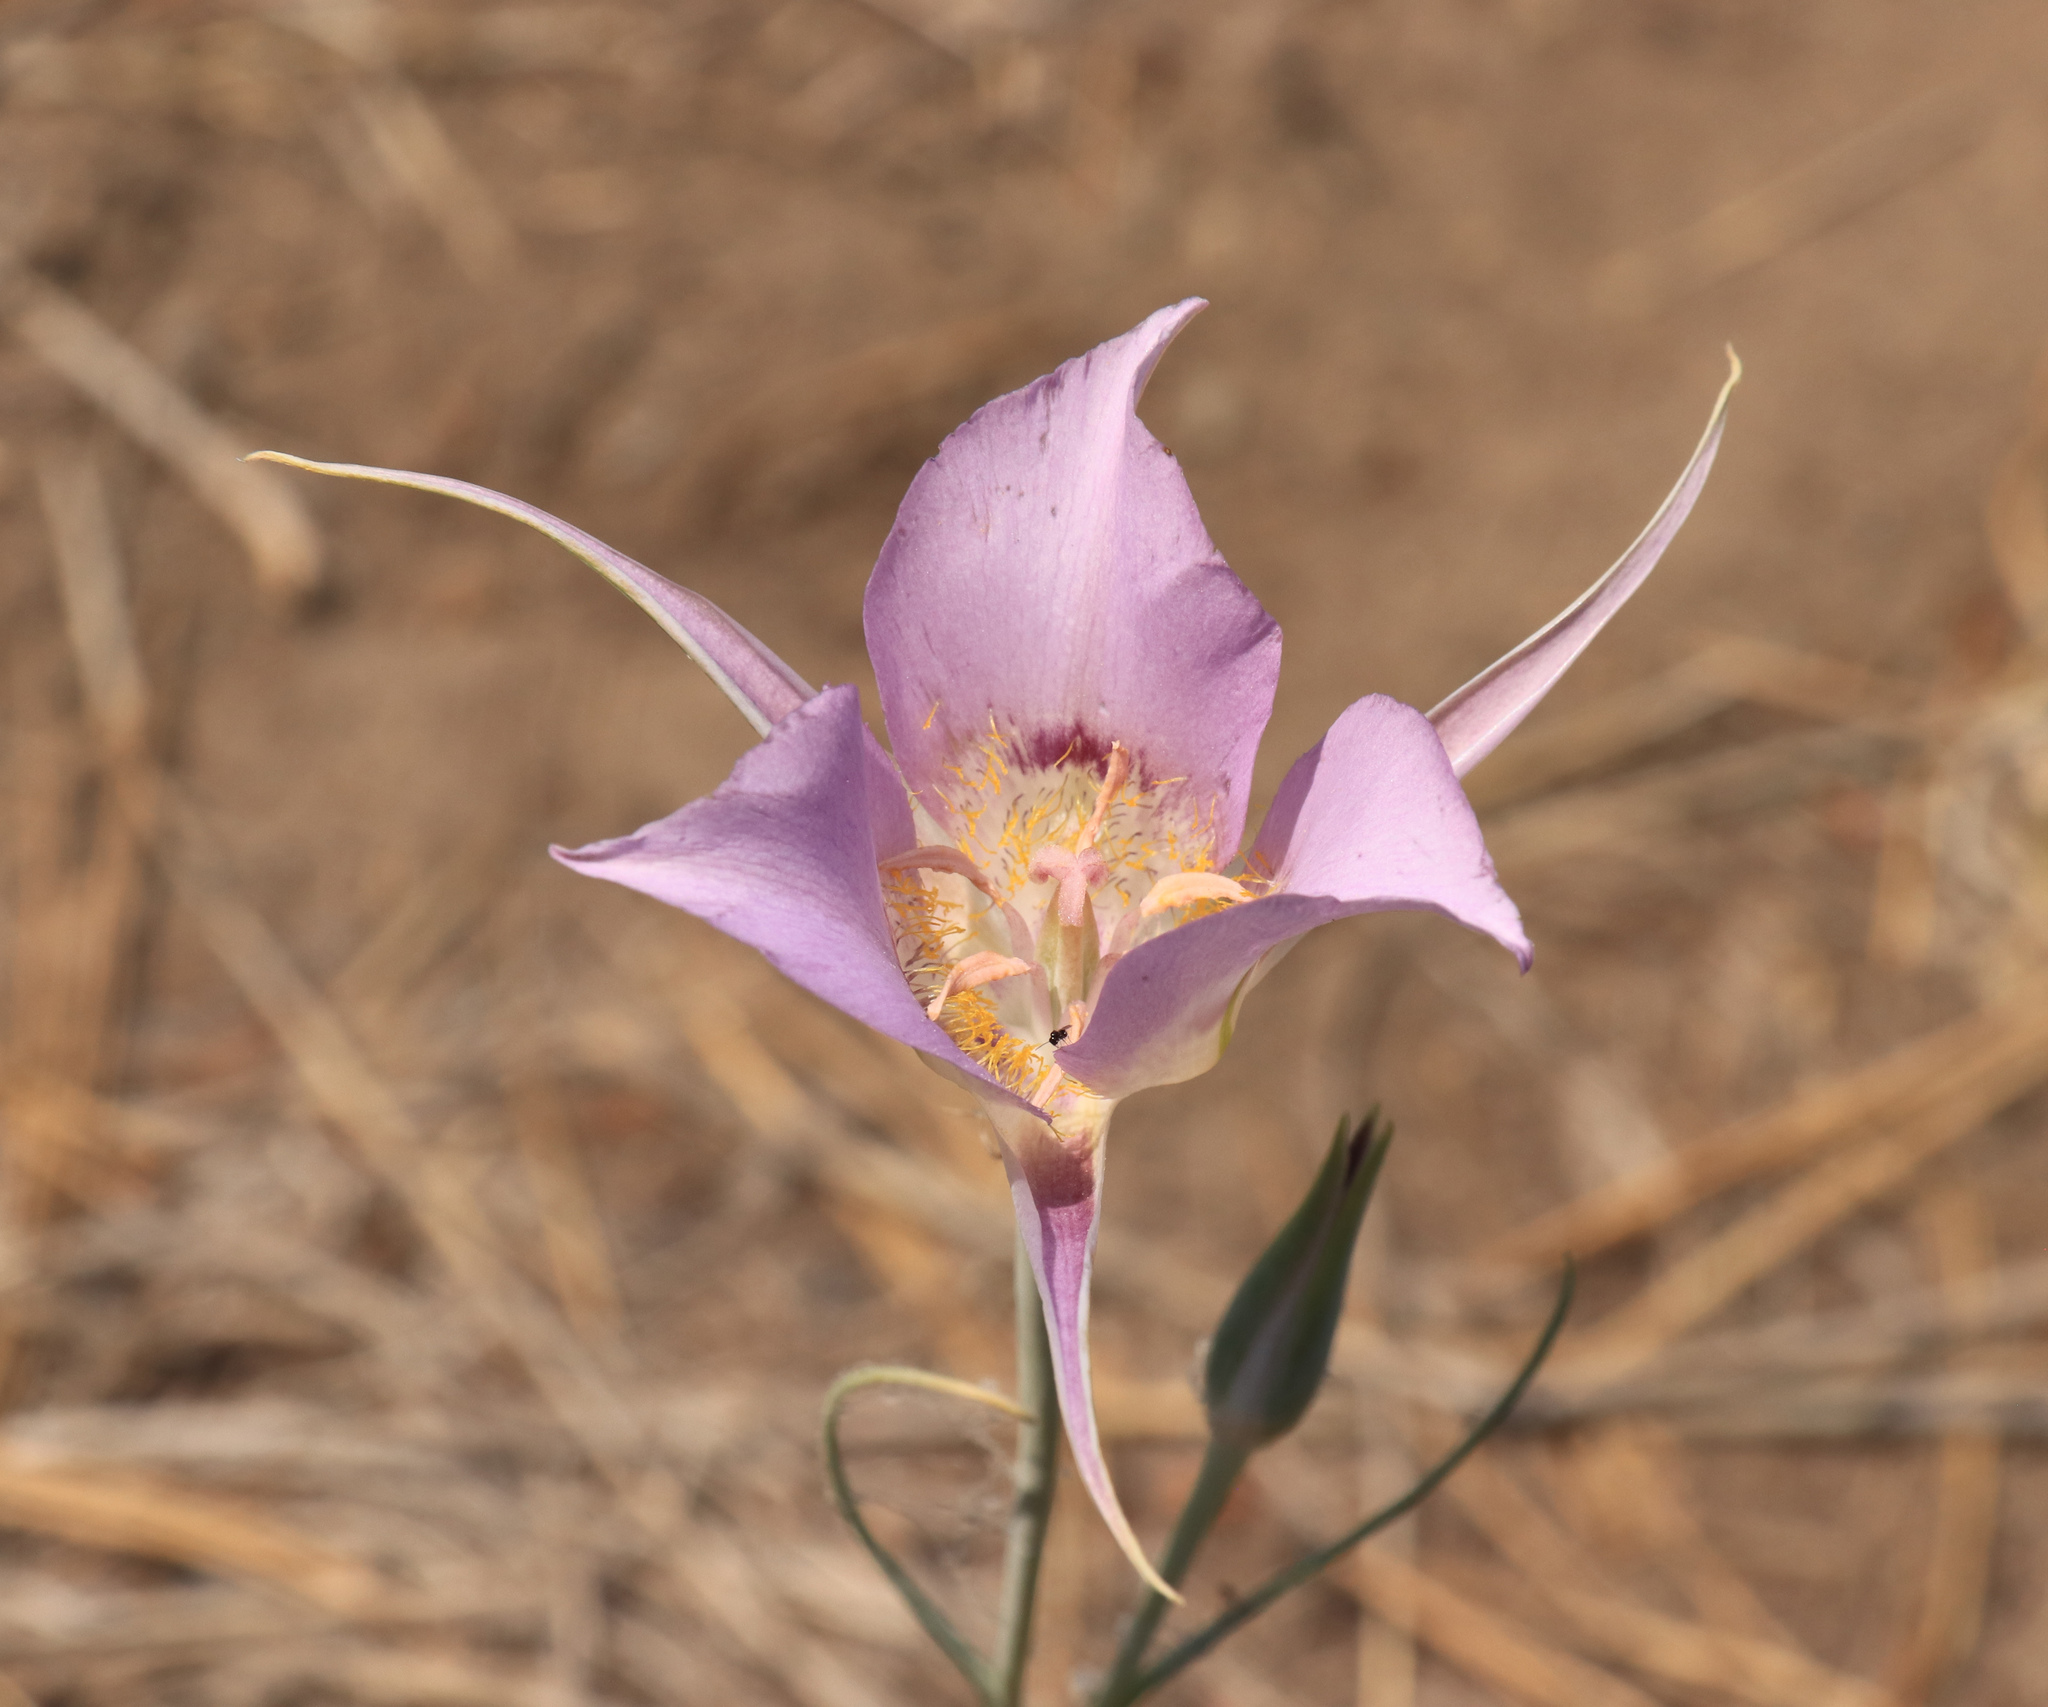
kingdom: Plantae
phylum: Tracheophyta
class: Liliopsida
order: Liliales
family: Liliaceae
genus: Calochortus
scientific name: Calochortus macrocarpus
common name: Green-band mariposa lily
